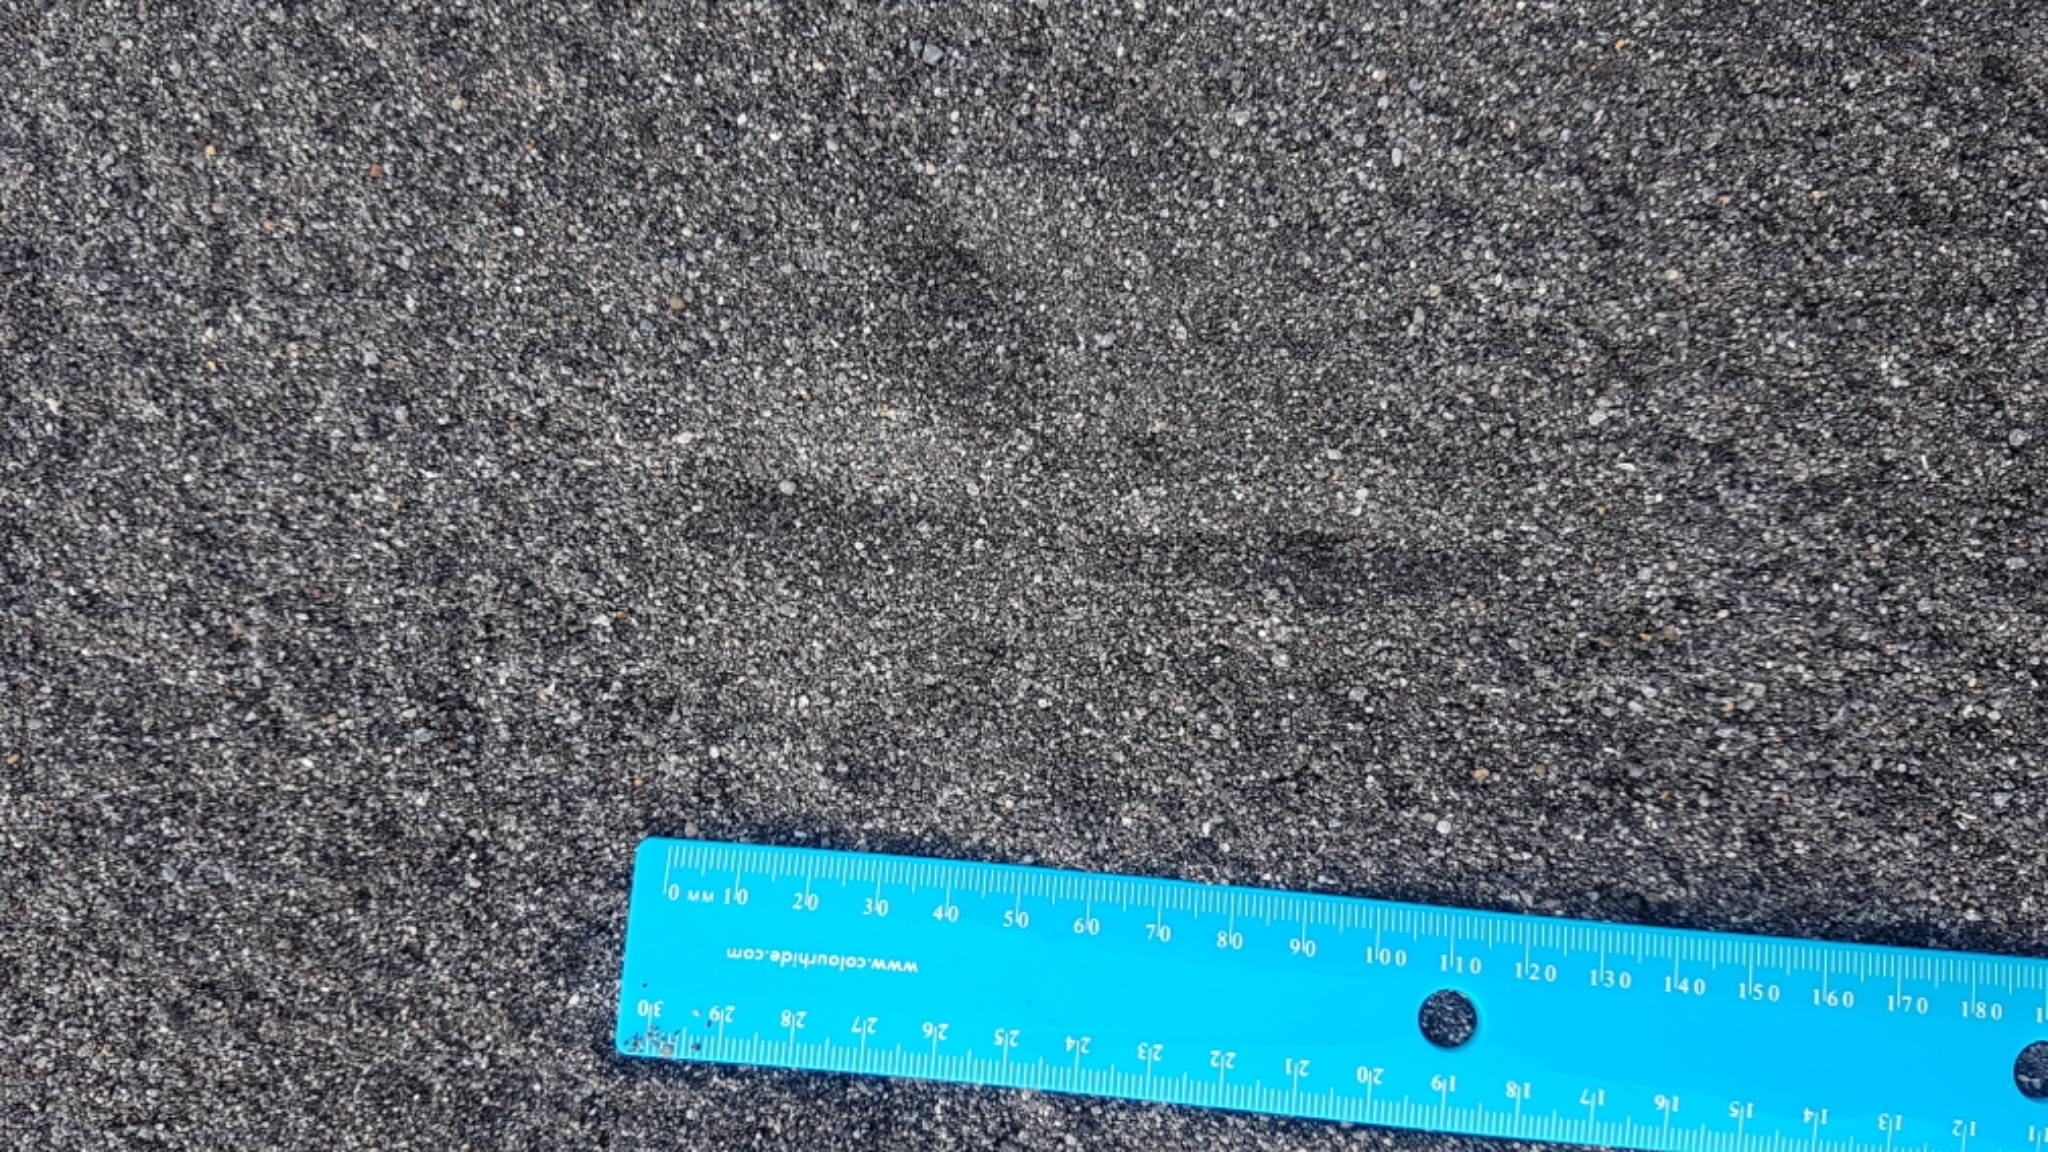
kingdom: Animalia
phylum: Chordata
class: Aves
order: Pelecaniformes
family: Ardeidae
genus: Egretta
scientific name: Egretta sacra
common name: Pacific reef heron
